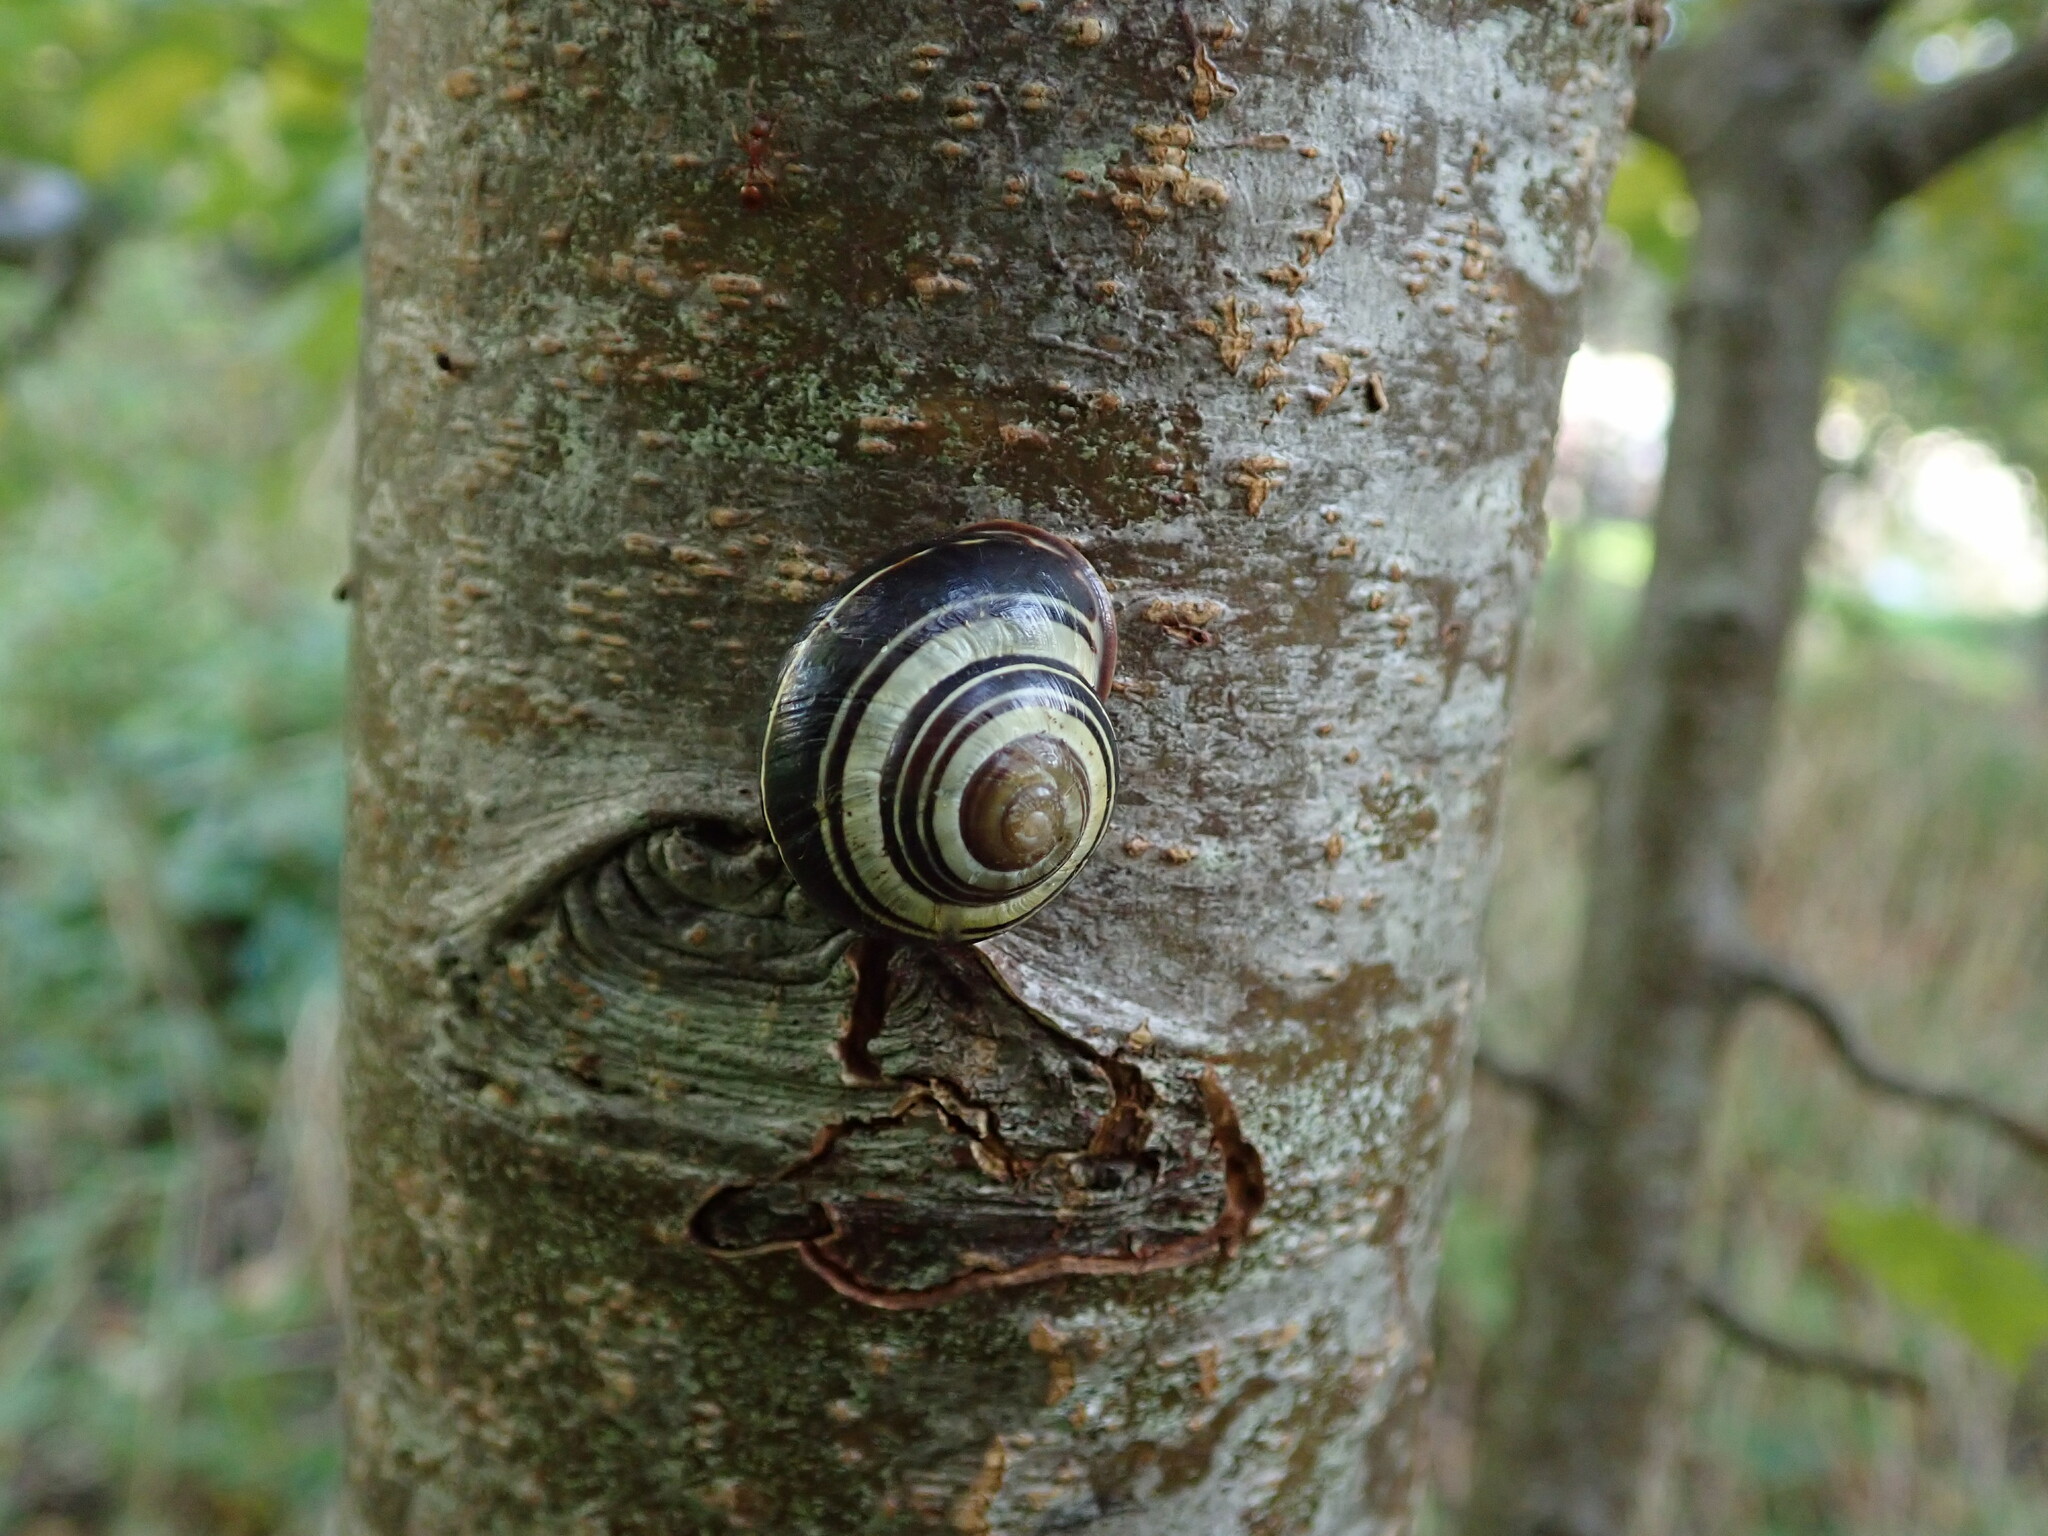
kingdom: Animalia
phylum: Mollusca
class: Gastropoda
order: Stylommatophora
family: Helicidae
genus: Cepaea
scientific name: Cepaea nemoralis
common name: Grovesnail
